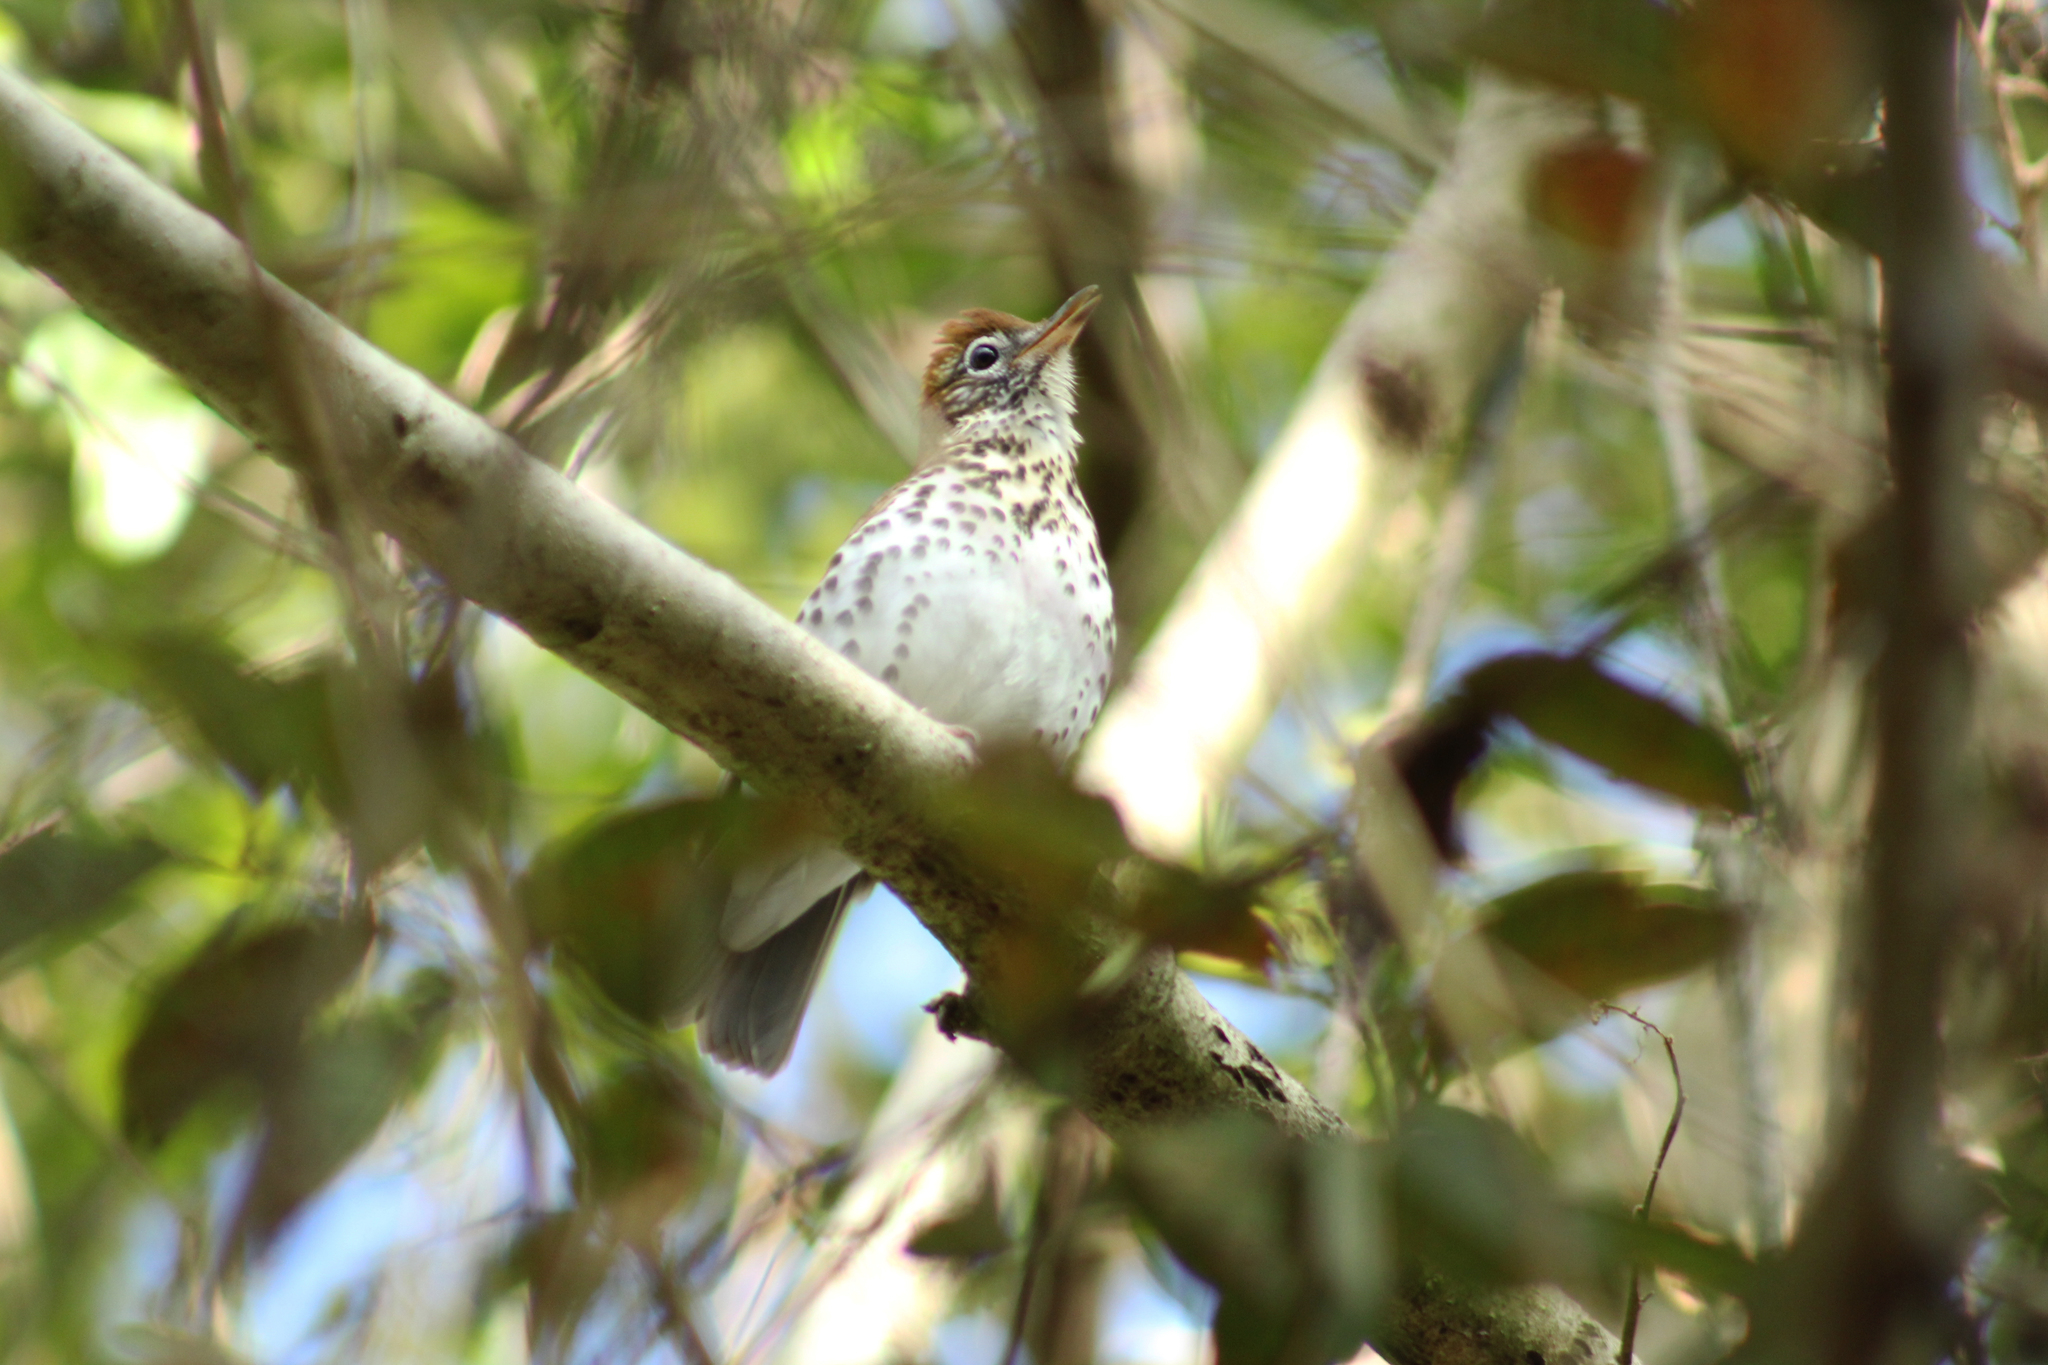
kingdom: Animalia
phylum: Chordata
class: Aves
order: Passeriformes
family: Turdidae
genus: Hylocichla
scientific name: Hylocichla mustelina
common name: Wood thrush
